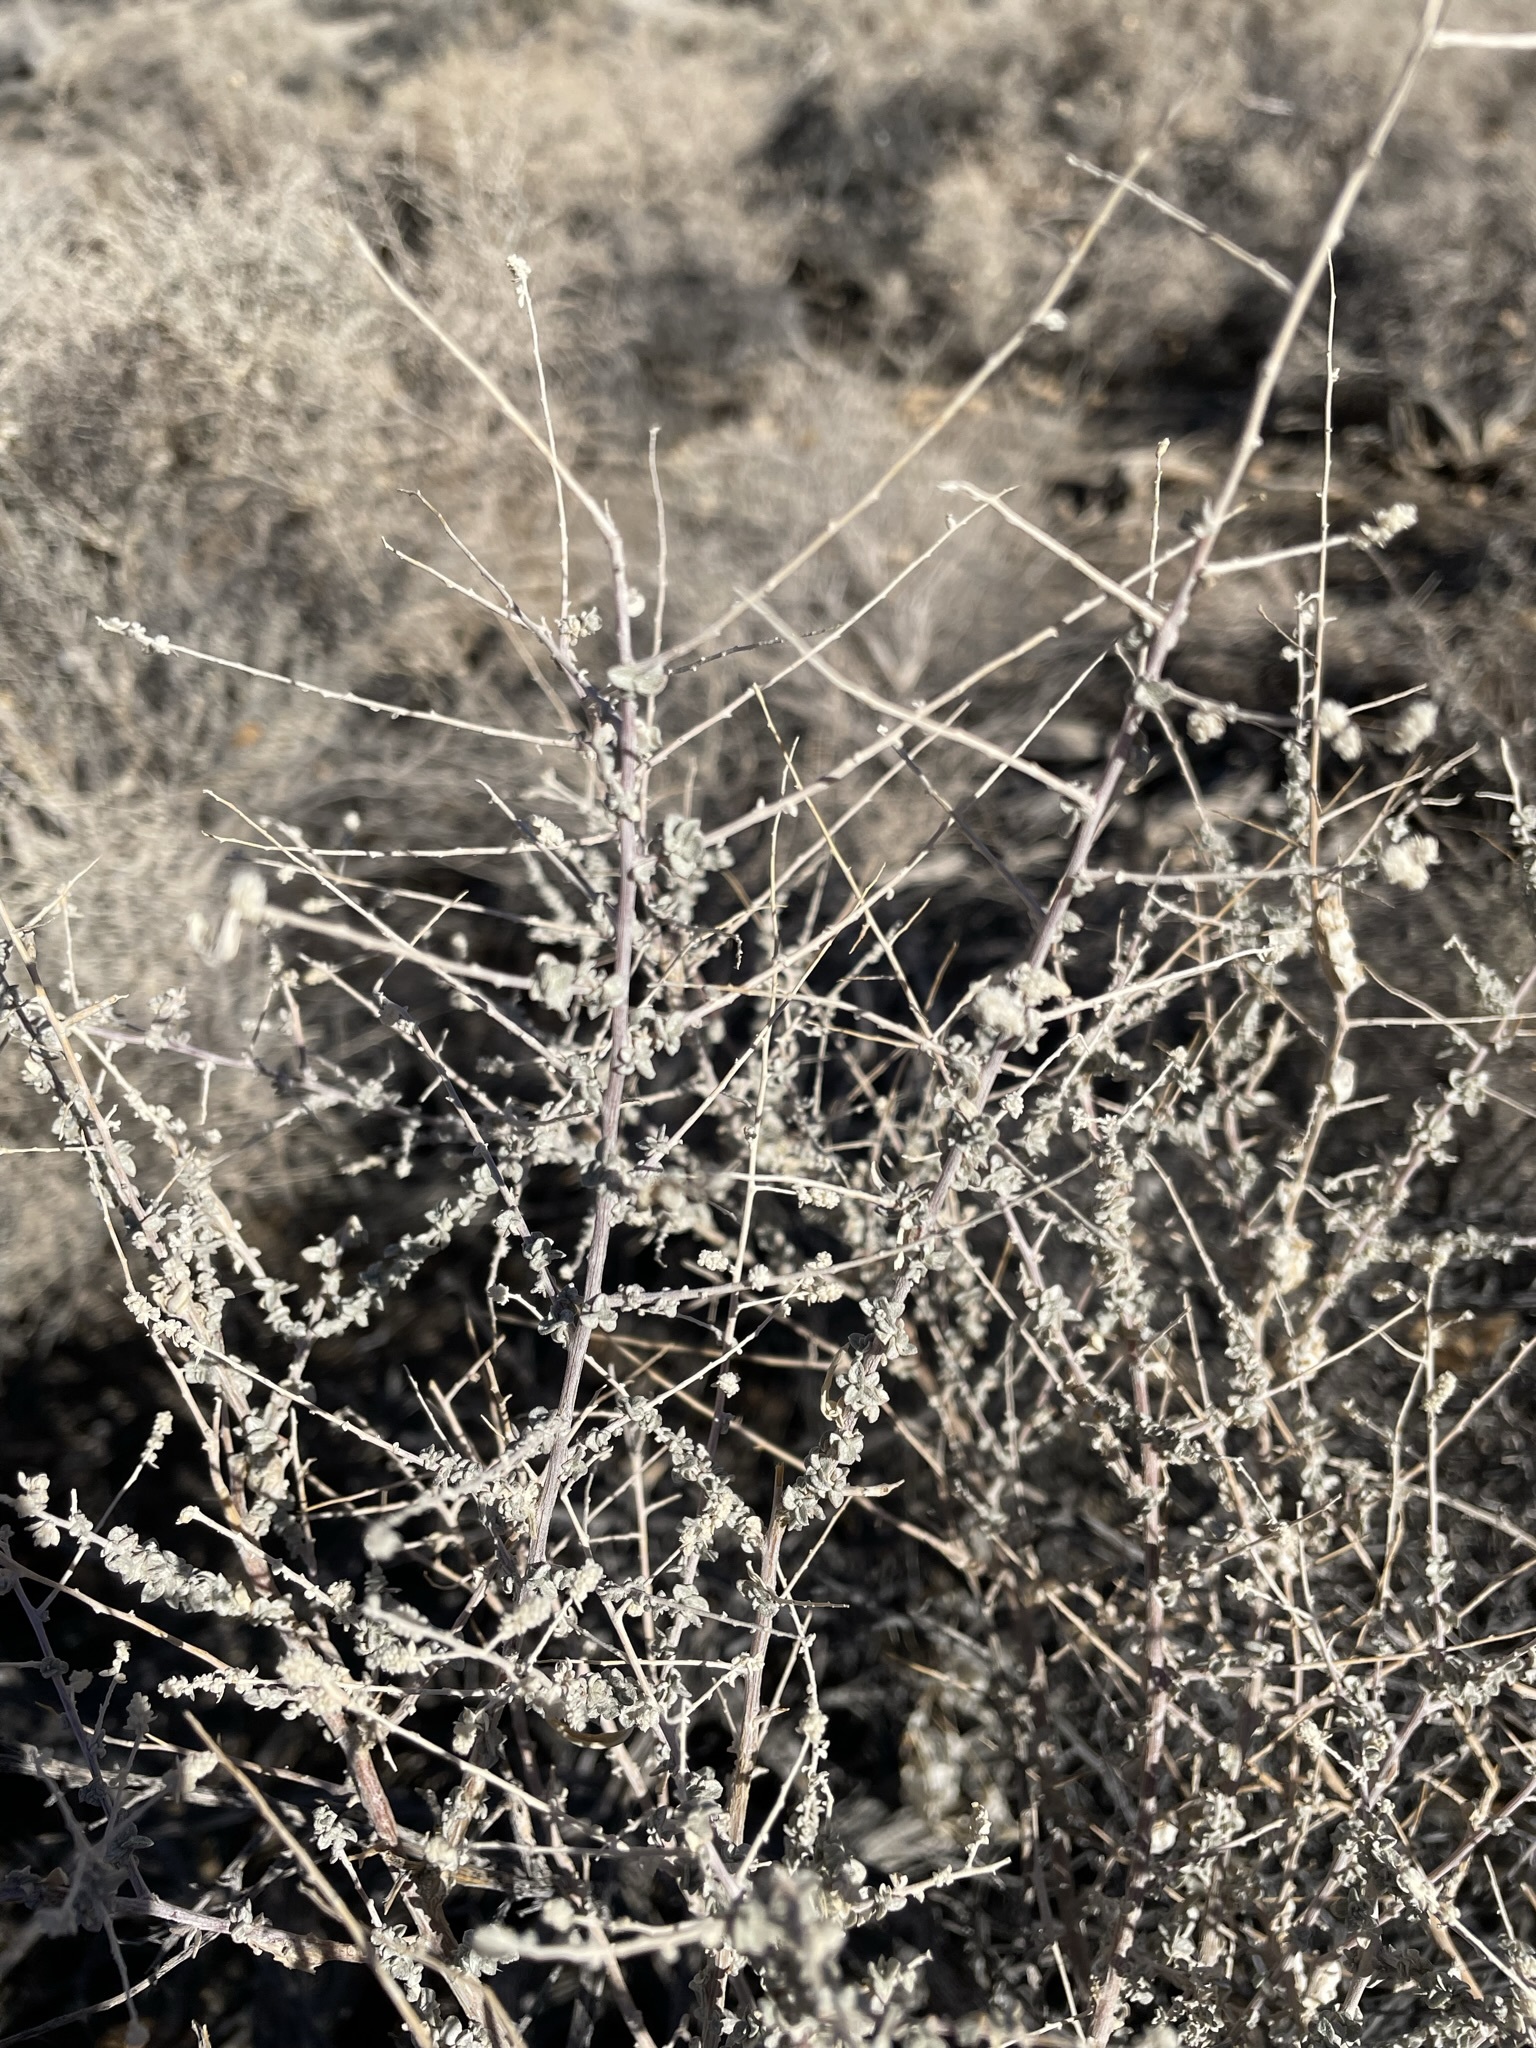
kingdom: Plantae
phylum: Tracheophyta
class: Magnoliopsida
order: Caryophyllales
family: Amaranthaceae
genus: Atriplex
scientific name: Atriplex polycarpa
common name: Desert saltbush
